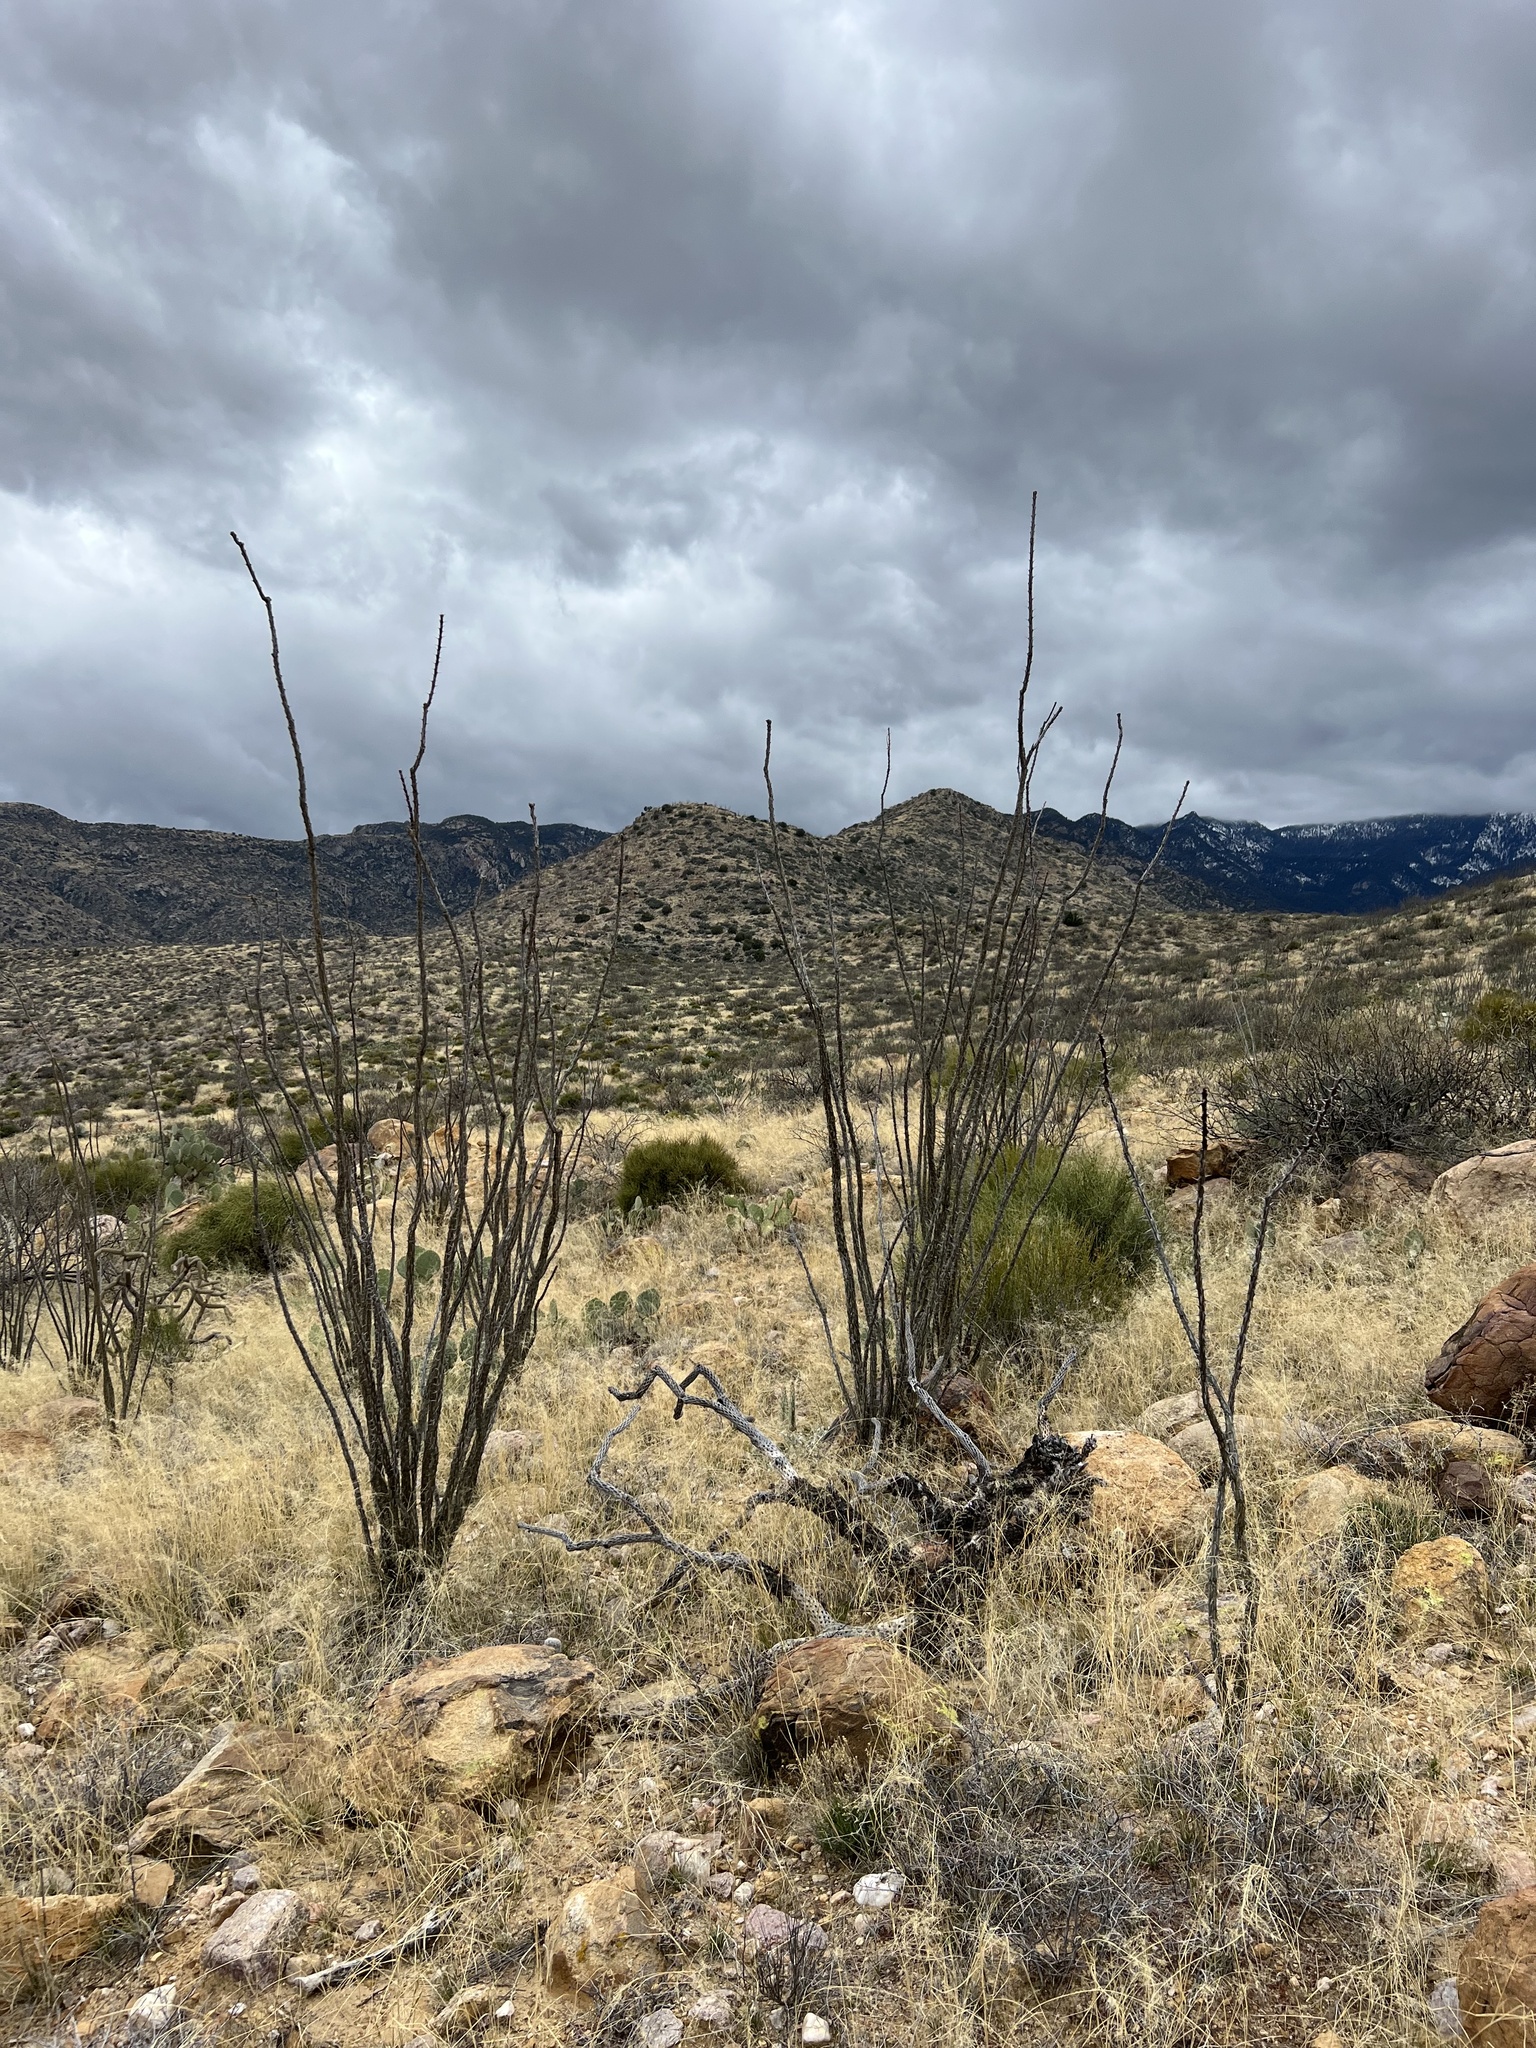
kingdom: Plantae
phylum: Tracheophyta
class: Magnoliopsida
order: Ericales
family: Fouquieriaceae
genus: Fouquieria
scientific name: Fouquieria splendens
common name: Vine-cactus
